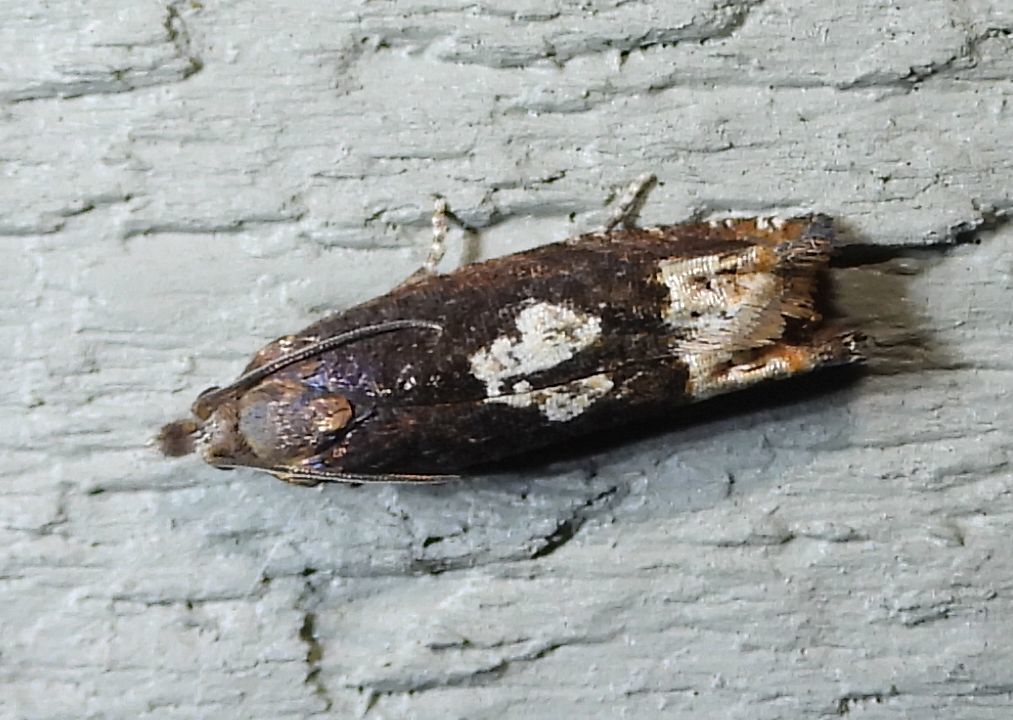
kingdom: Animalia
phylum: Arthropoda
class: Insecta
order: Lepidoptera
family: Tortricidae
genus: Eucosma
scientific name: Eucosma parmatana
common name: Aster eucosma moth
